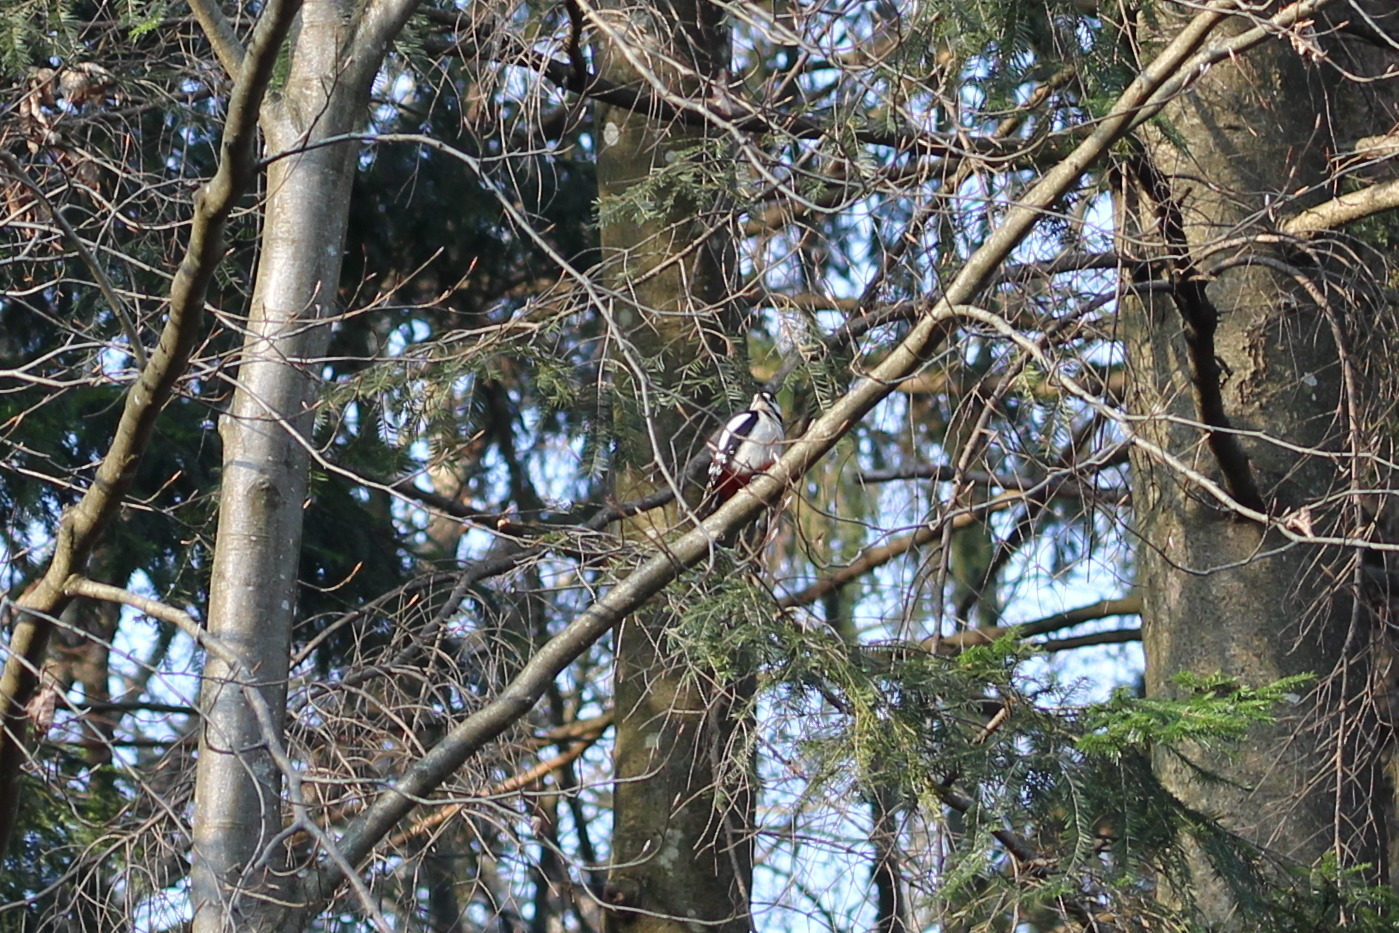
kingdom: Animalia
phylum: Chordata
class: Aves
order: Piciformes
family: Picidae
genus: Dendrocopos
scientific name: Dendrocopos major
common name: Great spotted woodpecker
